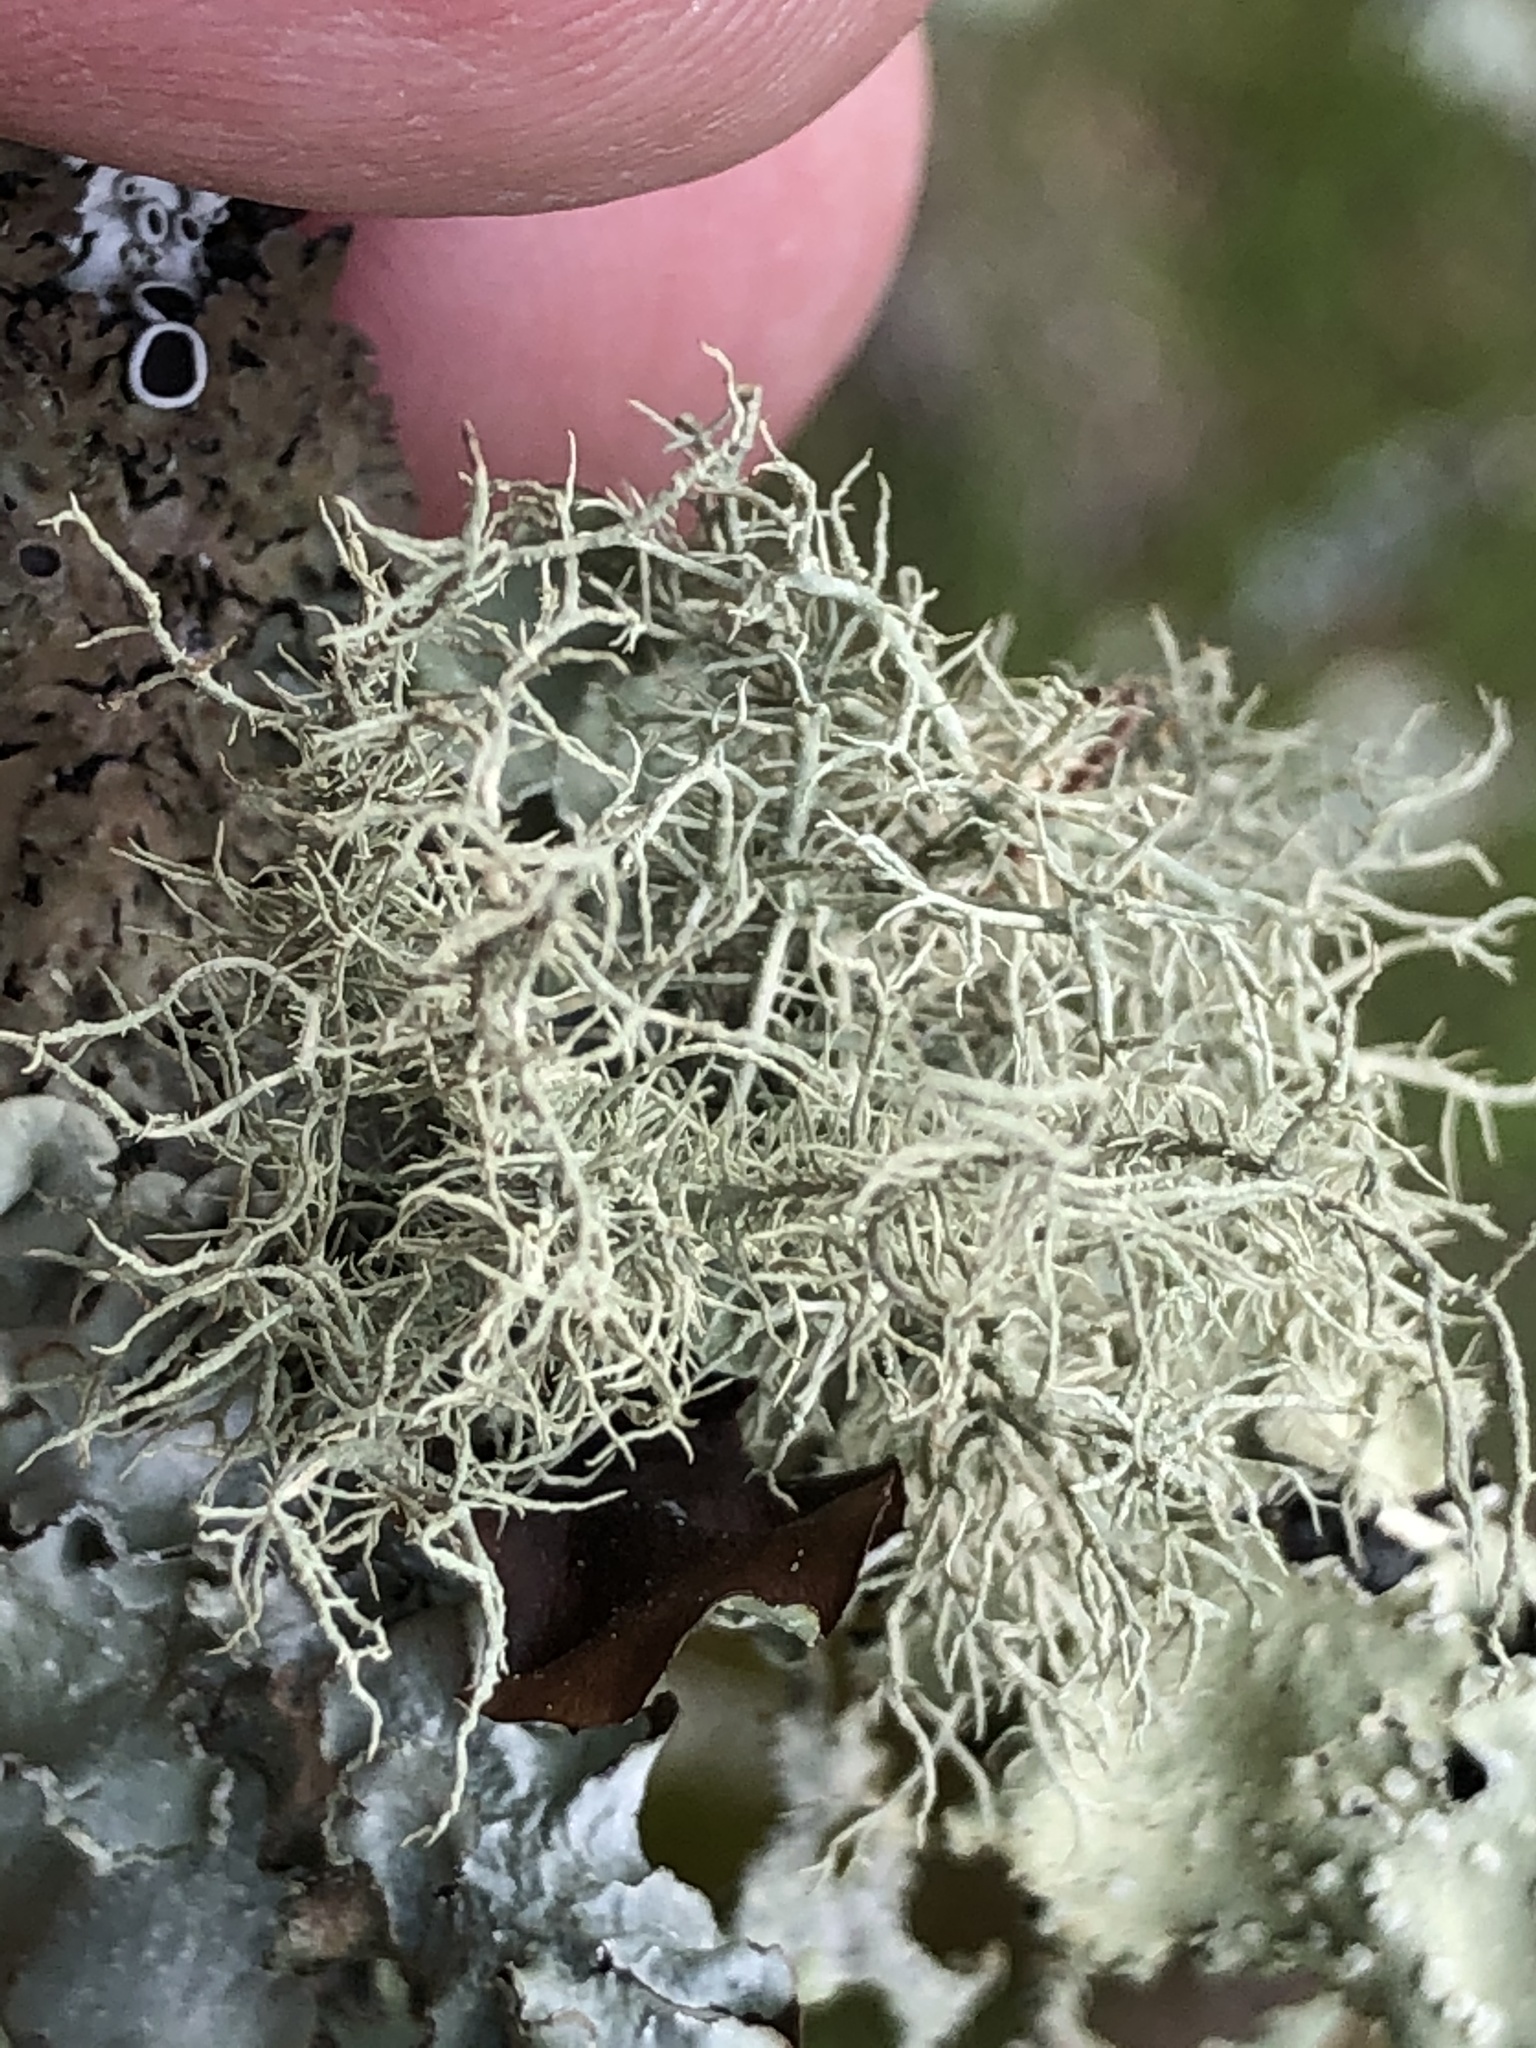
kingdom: Fungi
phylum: Ascomycota
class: Lecanoromycetes
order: Lecanorales
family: Parmeliaceae
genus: Usnea
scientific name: Usnea hirta
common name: Bristly beard lichen
